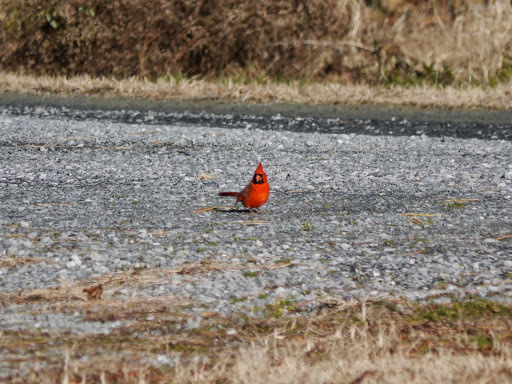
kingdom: Animalia
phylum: Chordata
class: Aves
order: Passeriformes
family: Cardinalidae
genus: Cardinalis
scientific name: Cardinalis cardinalis
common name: Northern cardinal
